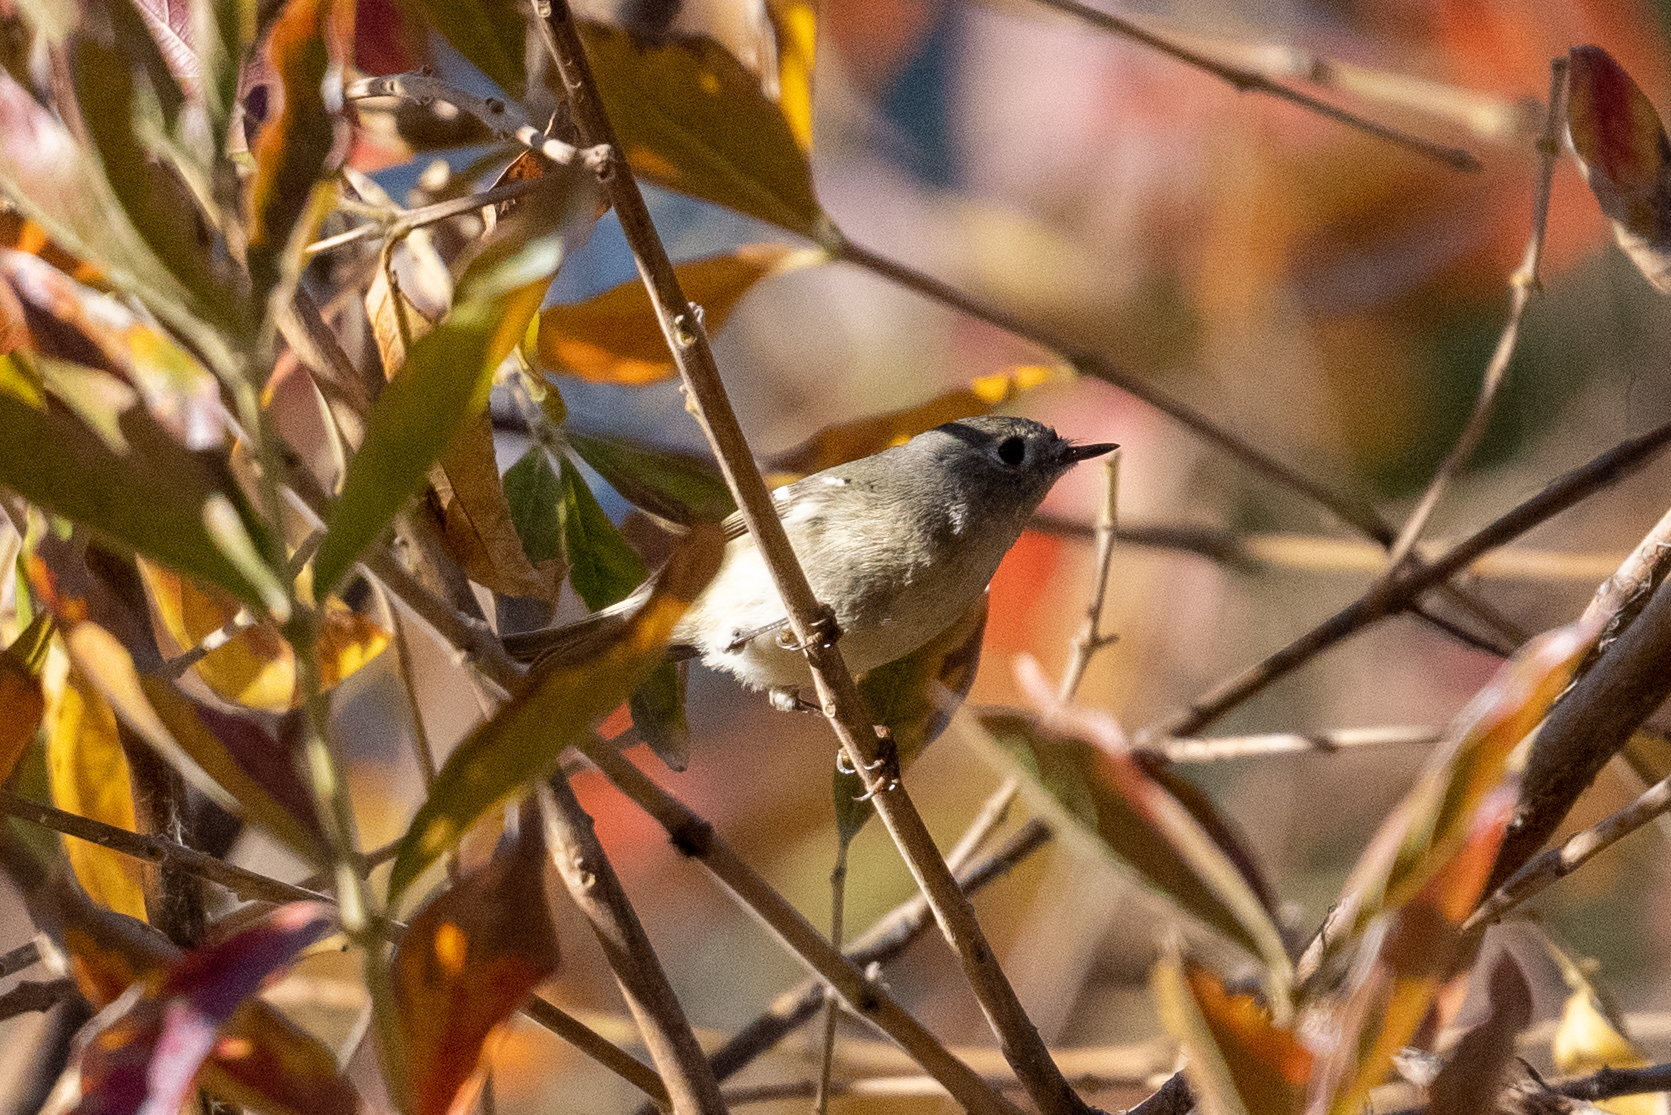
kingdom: Animalia
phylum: Chordata
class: Aves
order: Passeriformes
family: Regulidae
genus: Regulus
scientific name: Regulus calendula
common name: Ruby-crowned kinglet
